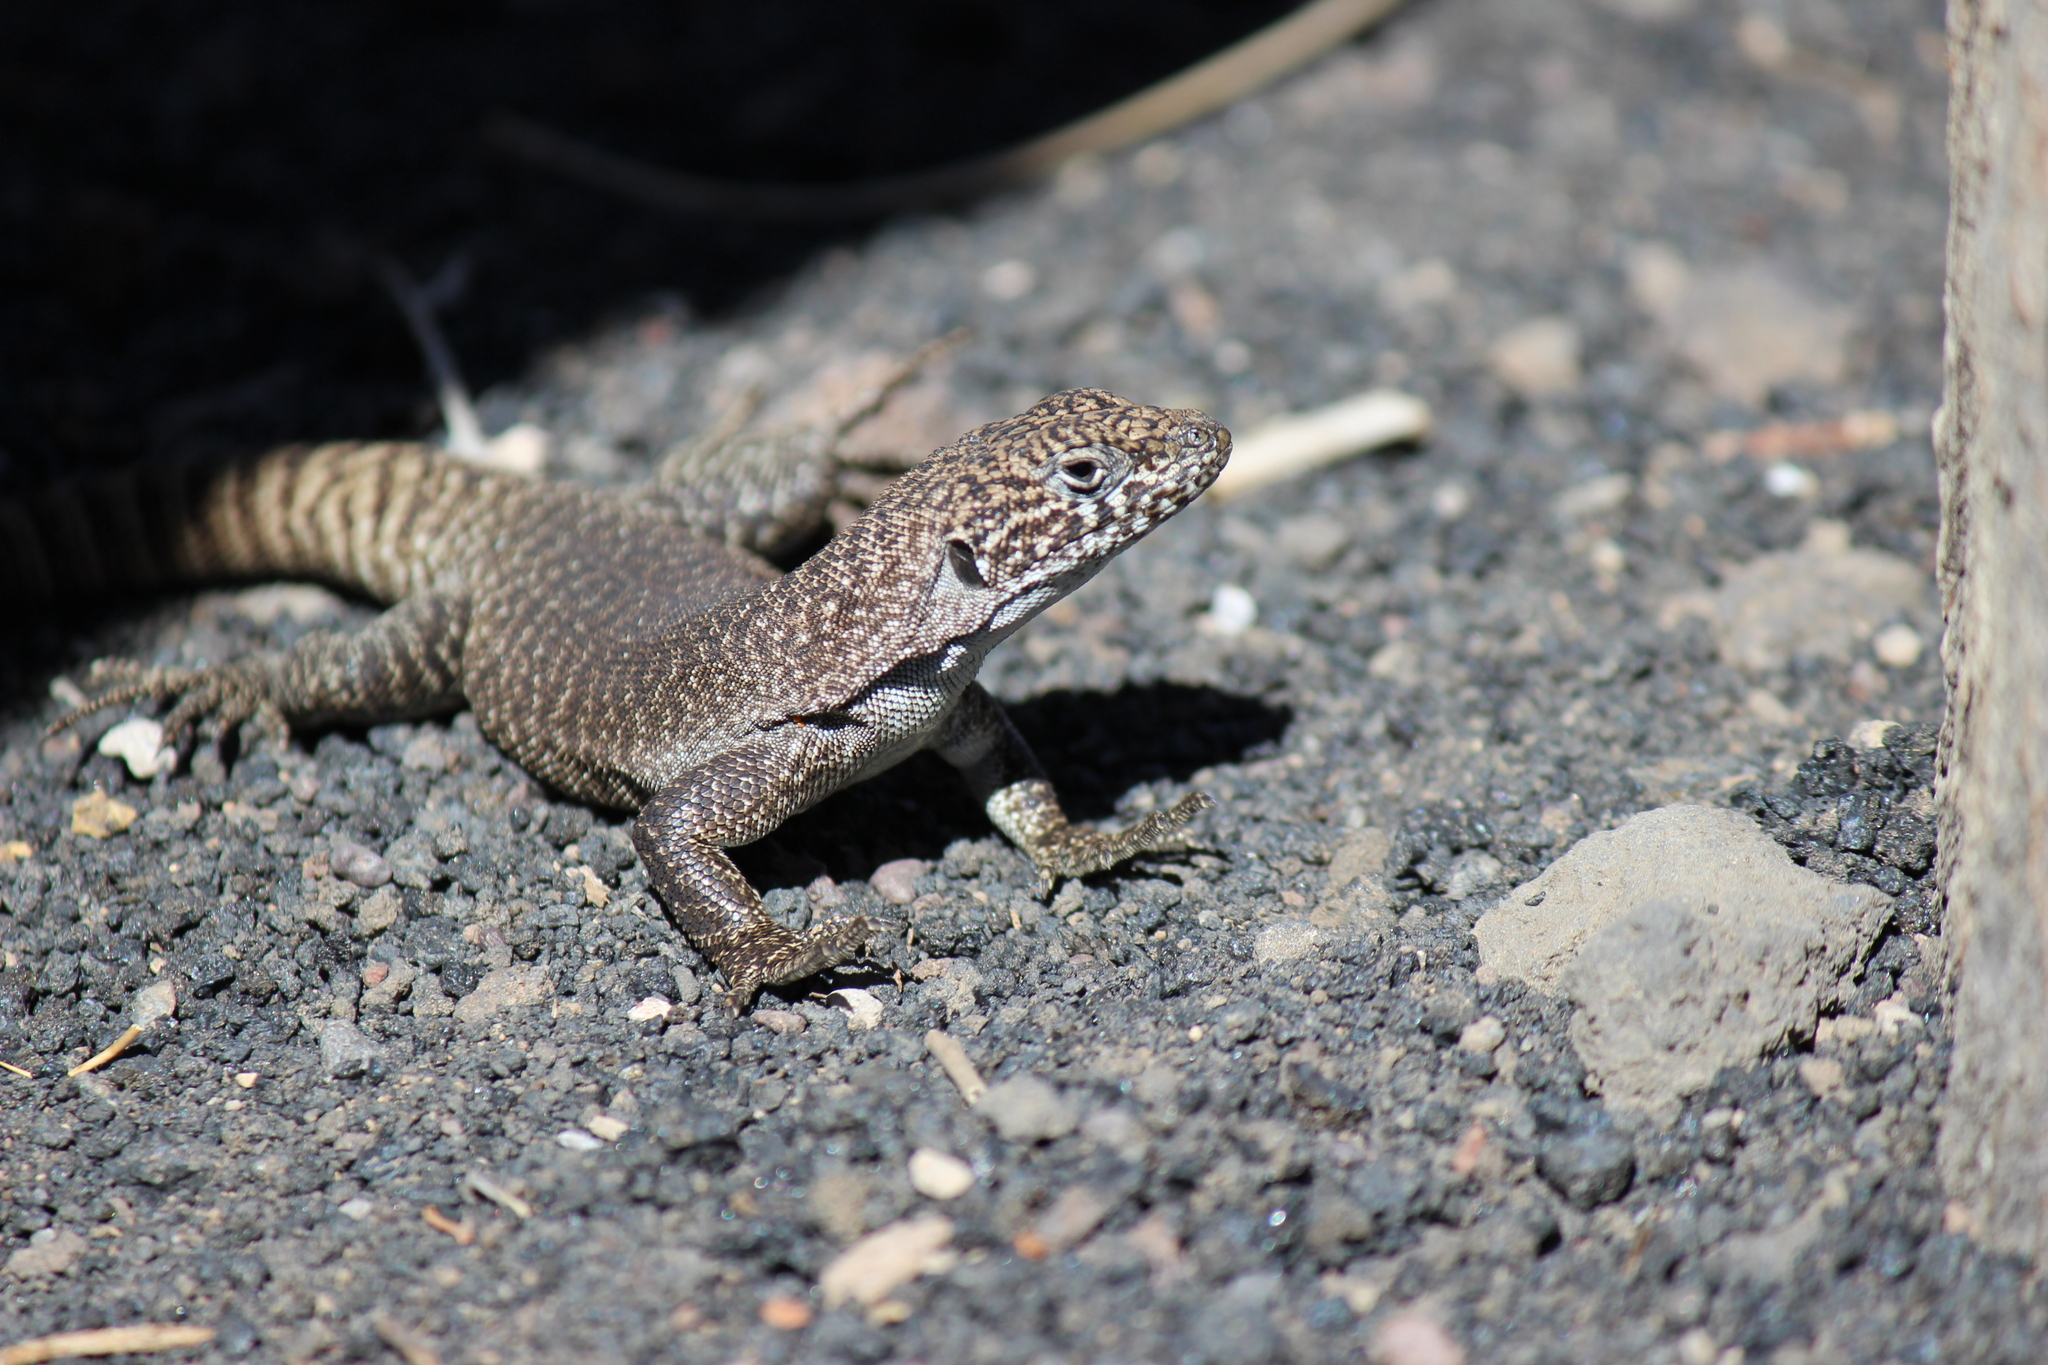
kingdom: Animalia
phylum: Chordata
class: Squamata
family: Liolaemidae
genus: Liolaemus
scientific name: Liolaemus austromendocinus
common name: Austromendocino tree iguana
